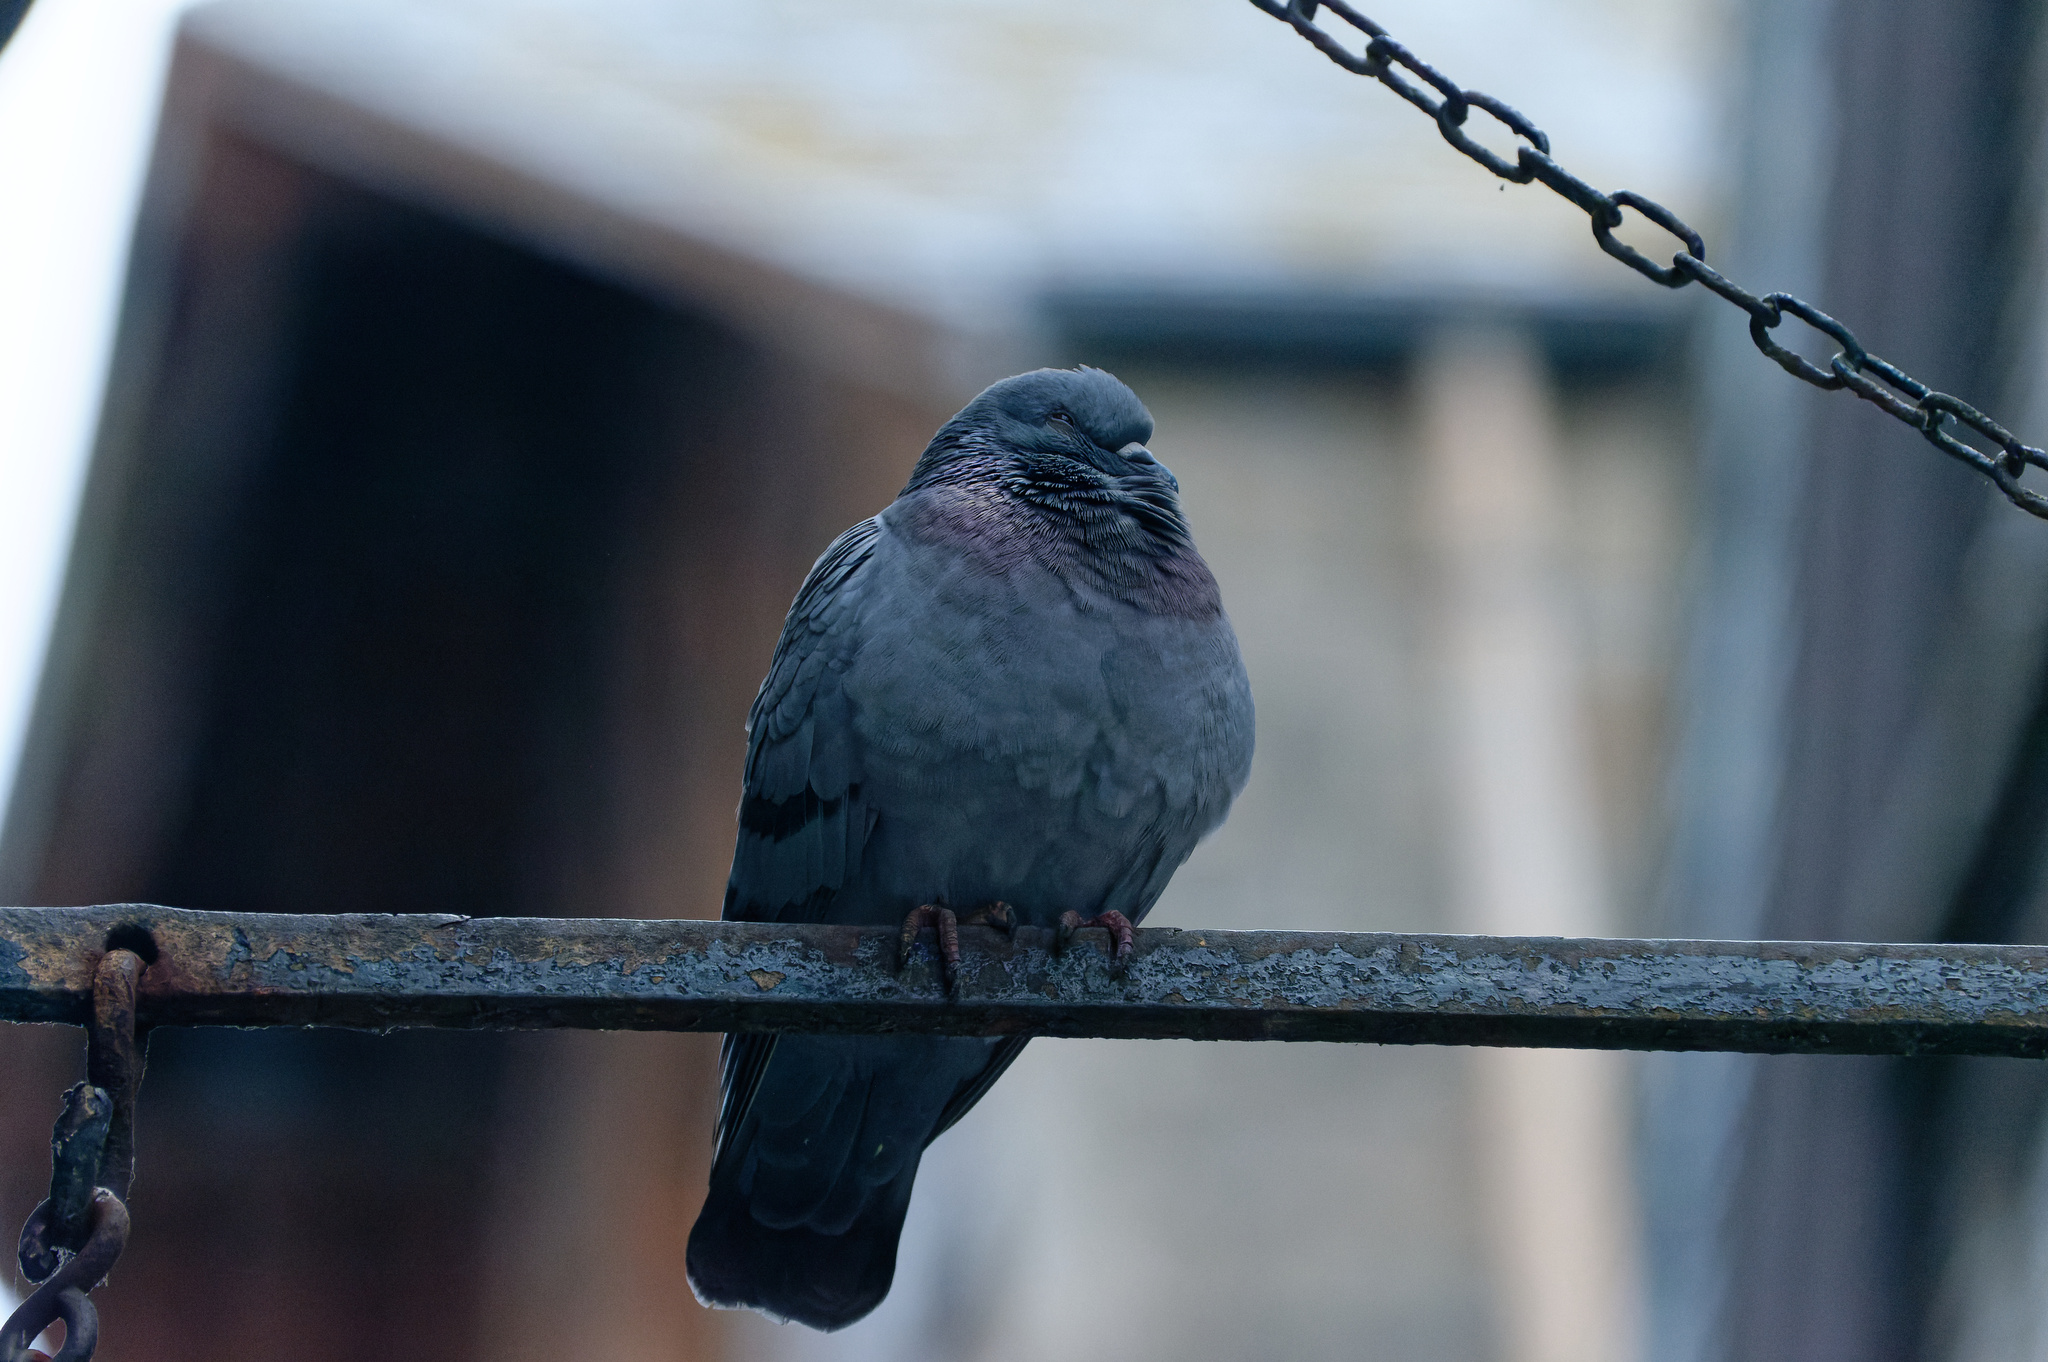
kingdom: Animalia
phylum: Chordata
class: Aves
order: Columbiformes
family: Columbidae
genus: Columba
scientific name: Columba livia
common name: Rock pigeon
